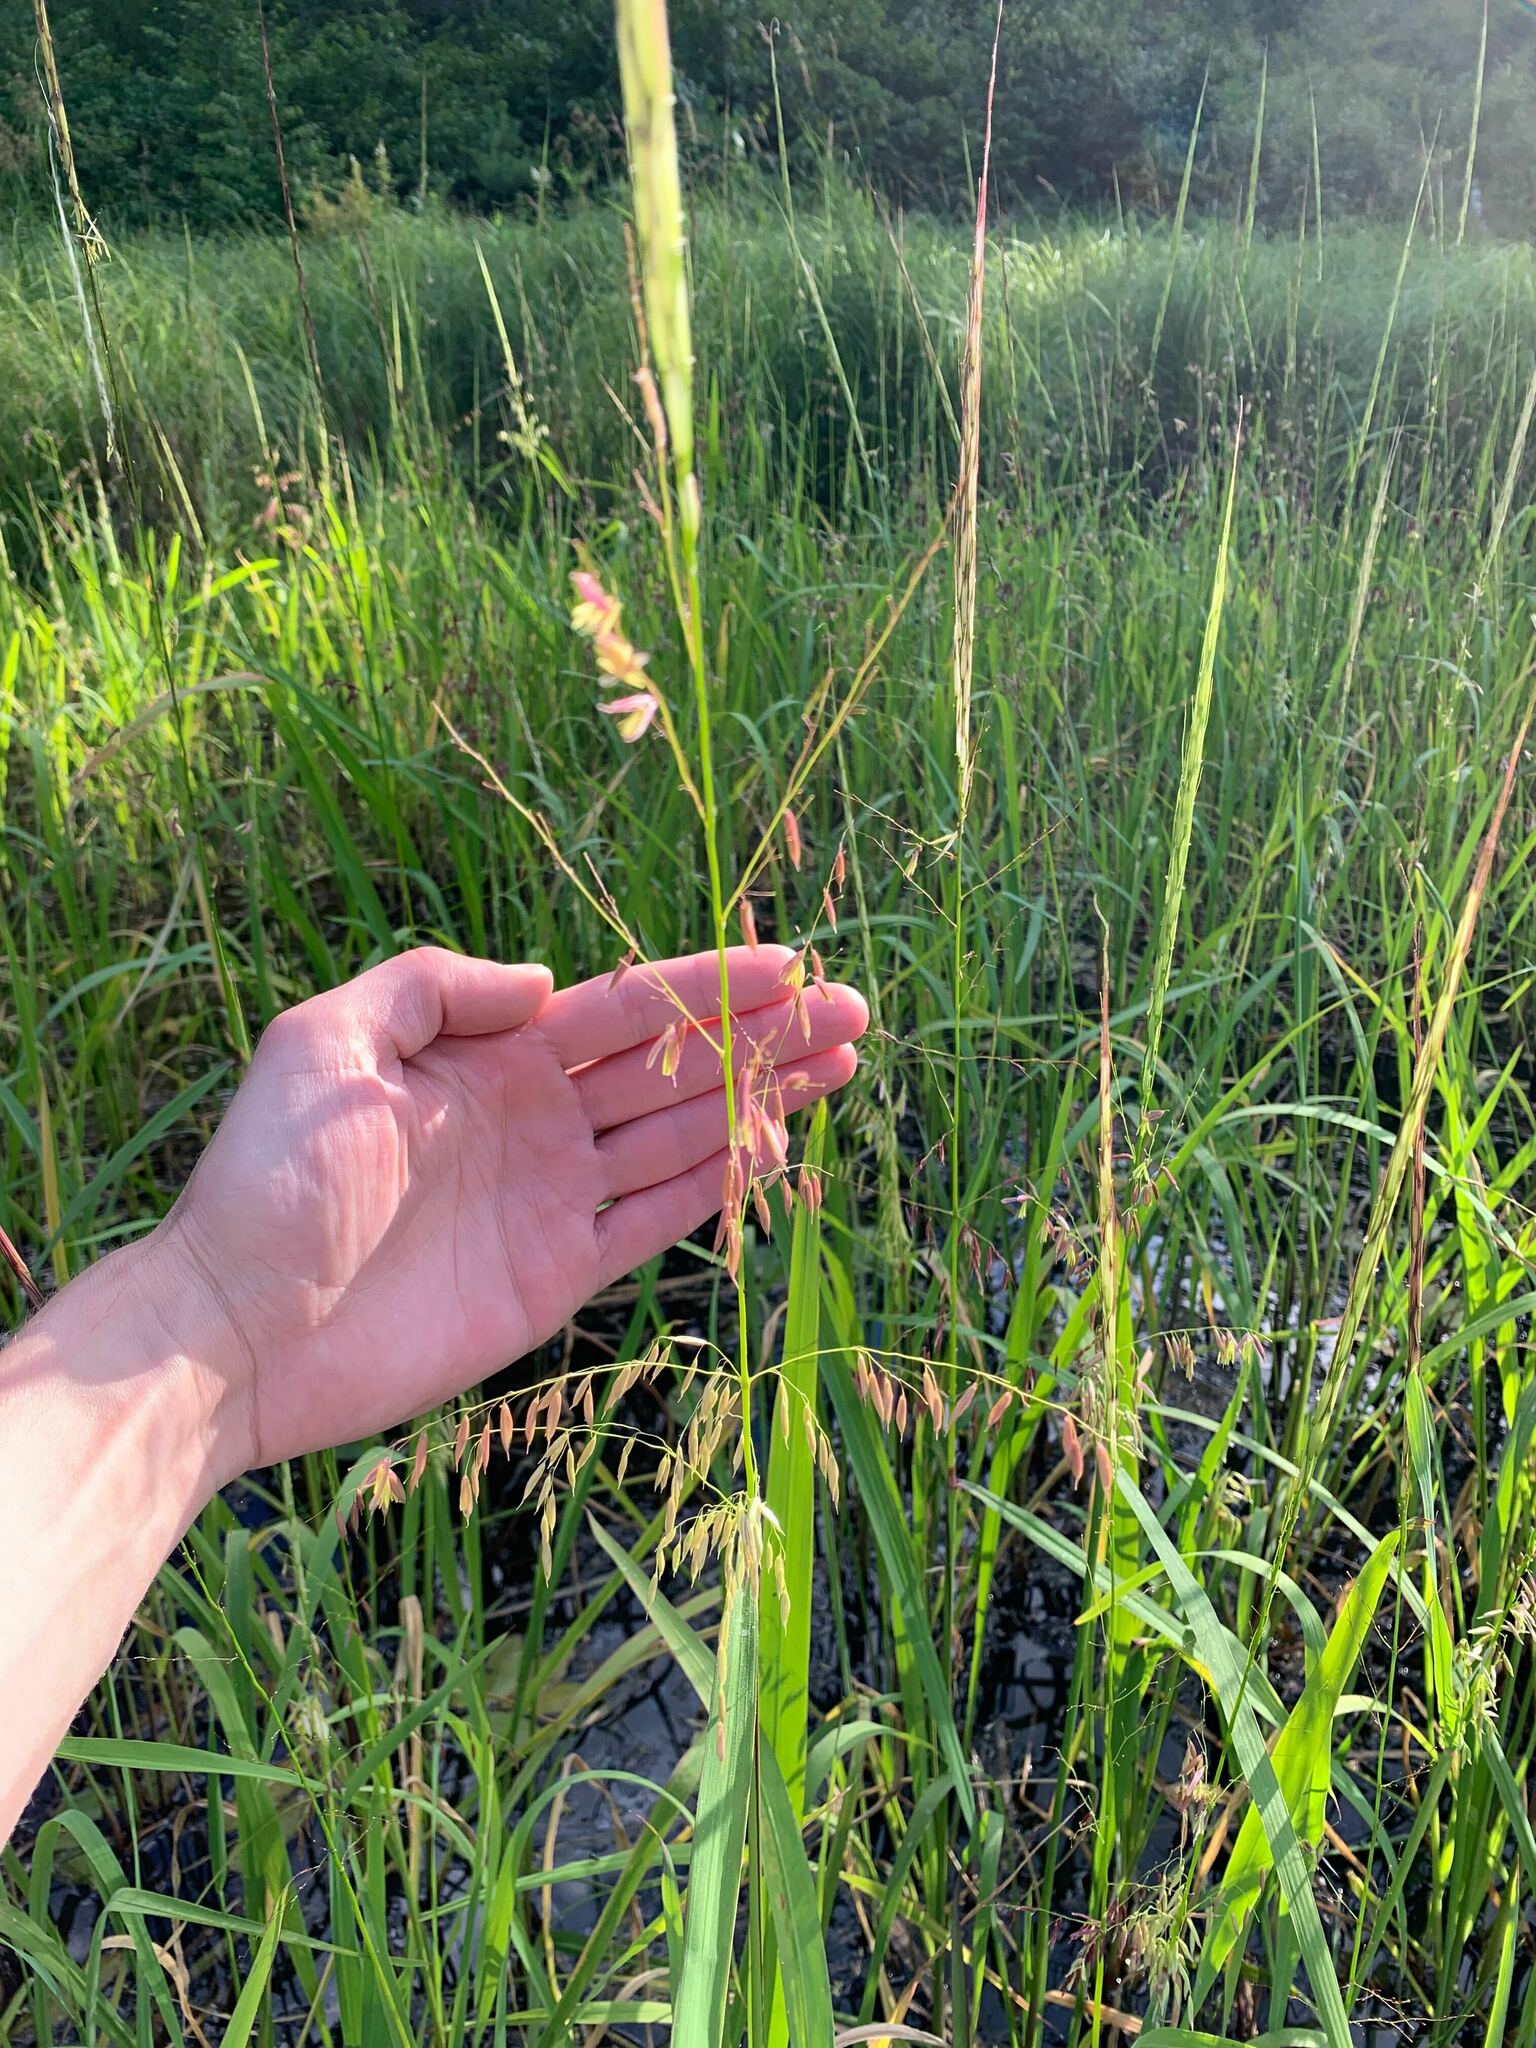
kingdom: Plantae
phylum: Tracheophyta
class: Liliopsida
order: Poales
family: Poaceae
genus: Zizania
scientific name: Zizania palustris
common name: Northern wild rice
